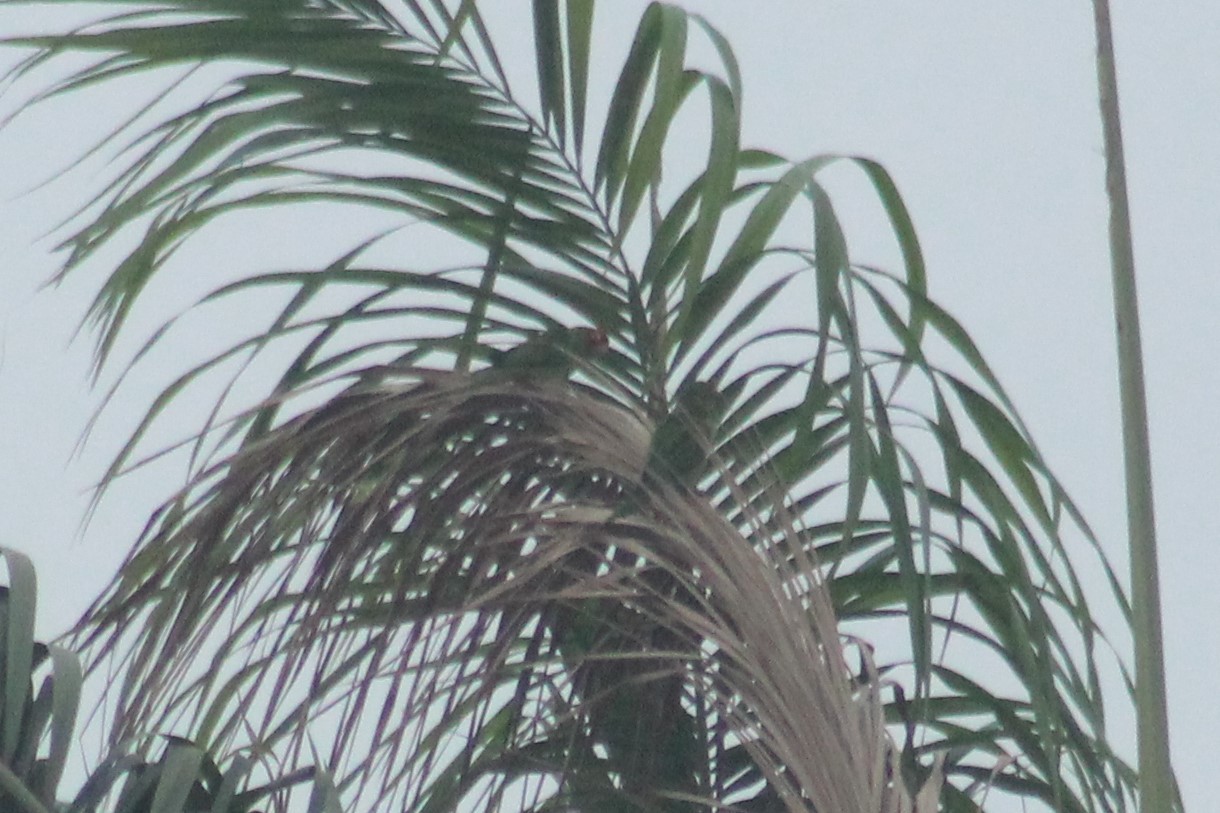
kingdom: Animalia
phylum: Chordata
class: Aves
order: Psittaciformes
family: Psittacidae
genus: Aratinga
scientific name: Aratinga erythrogenys
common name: Red-masked parakeet
